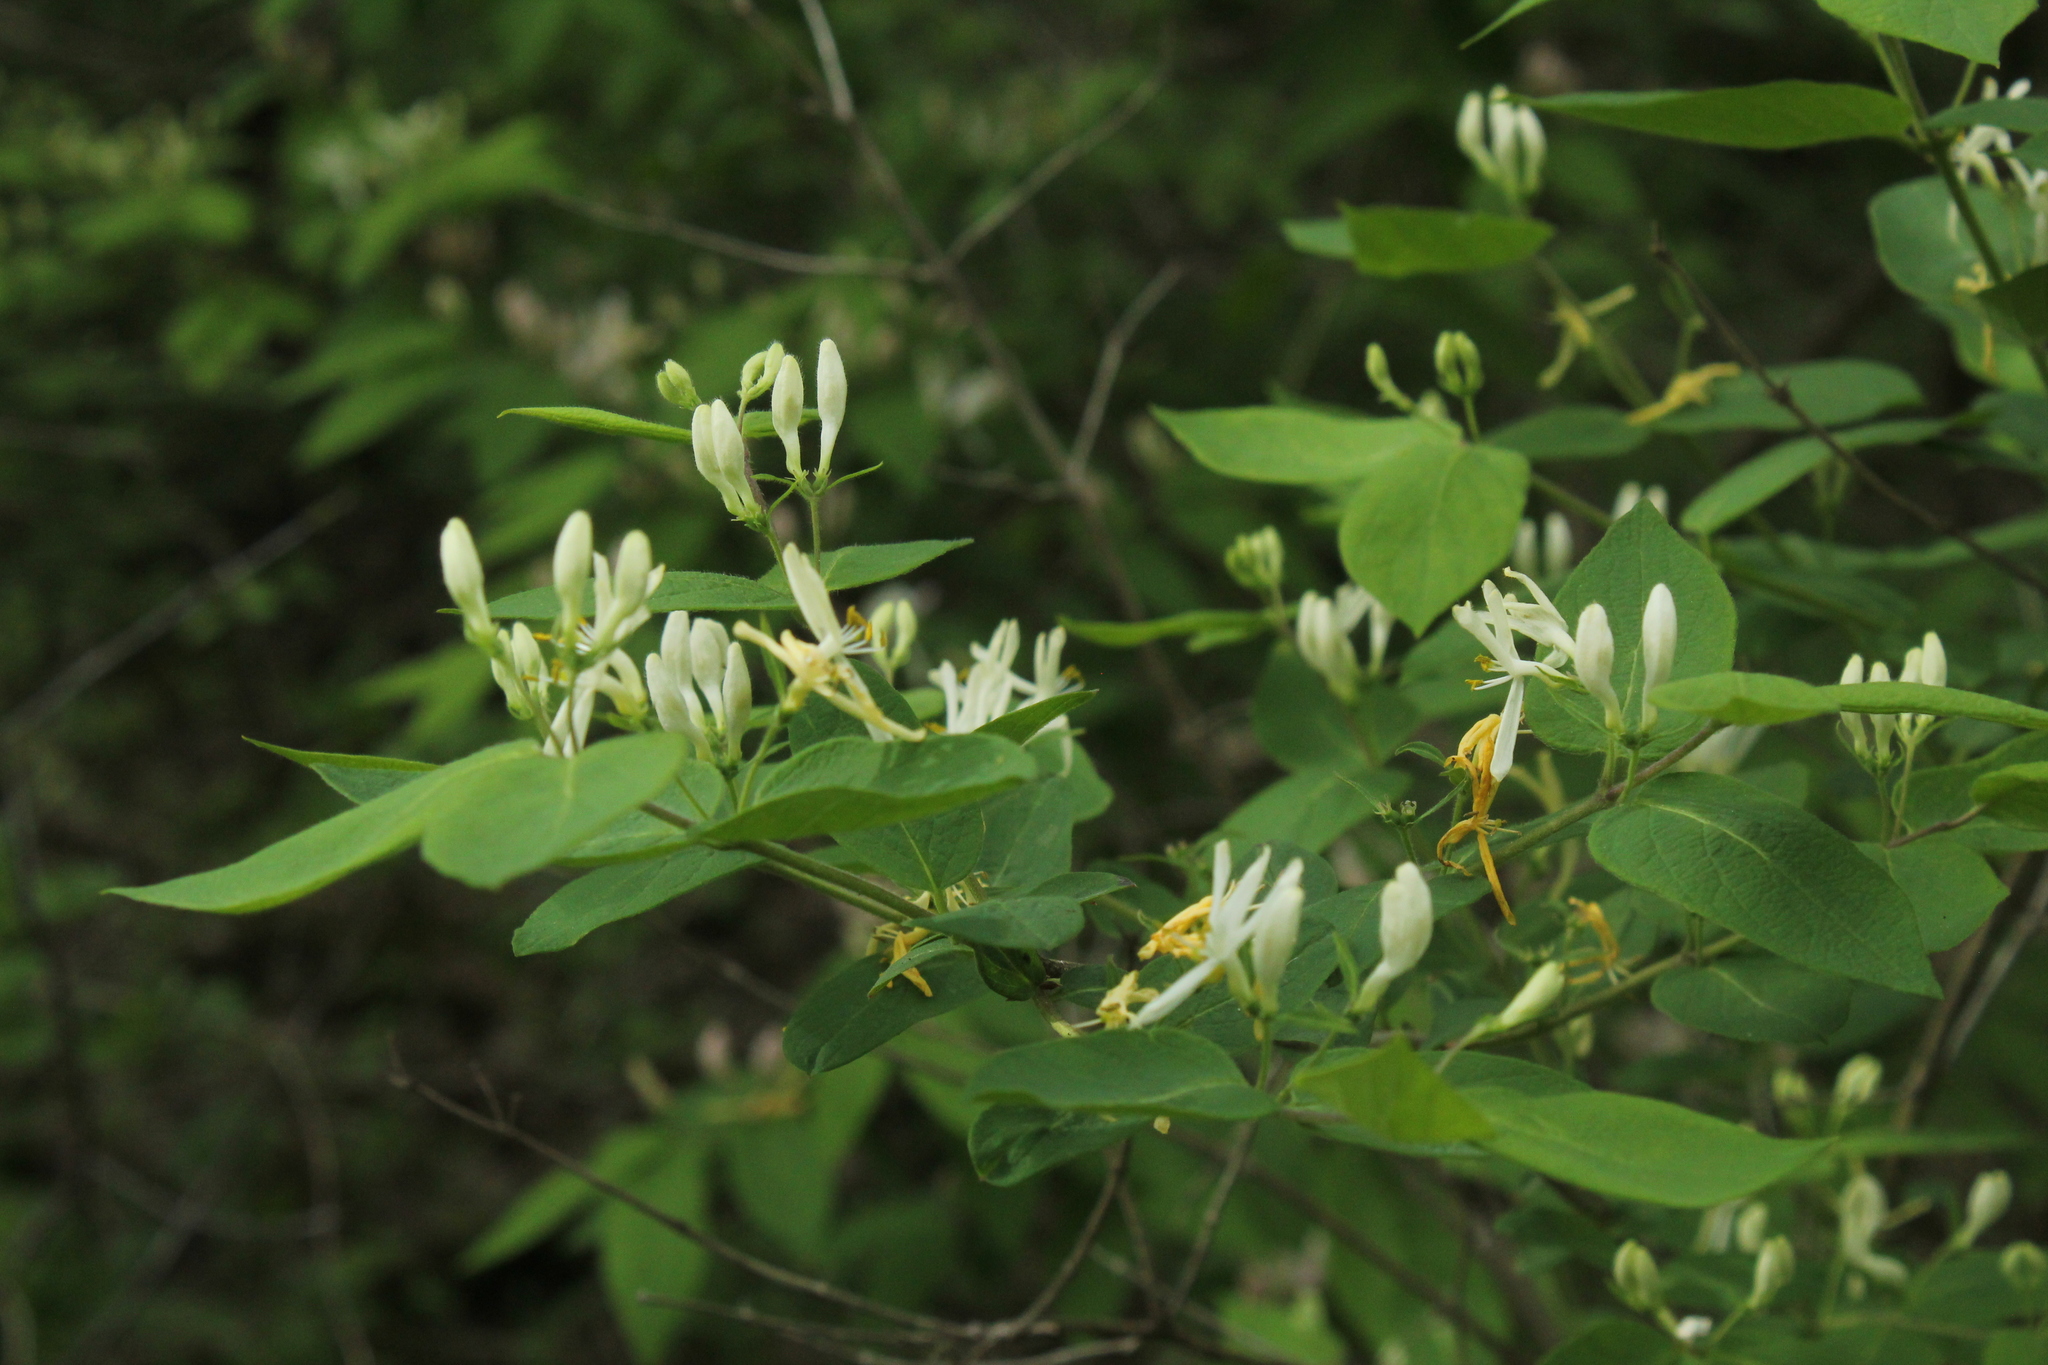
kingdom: Plantae
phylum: Tracheophyta
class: Magnoliopsida
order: Dipsacales
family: Caprifoliaceae
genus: Lonicera
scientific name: Lonicera morrowii
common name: Morrow's honeysuckle
